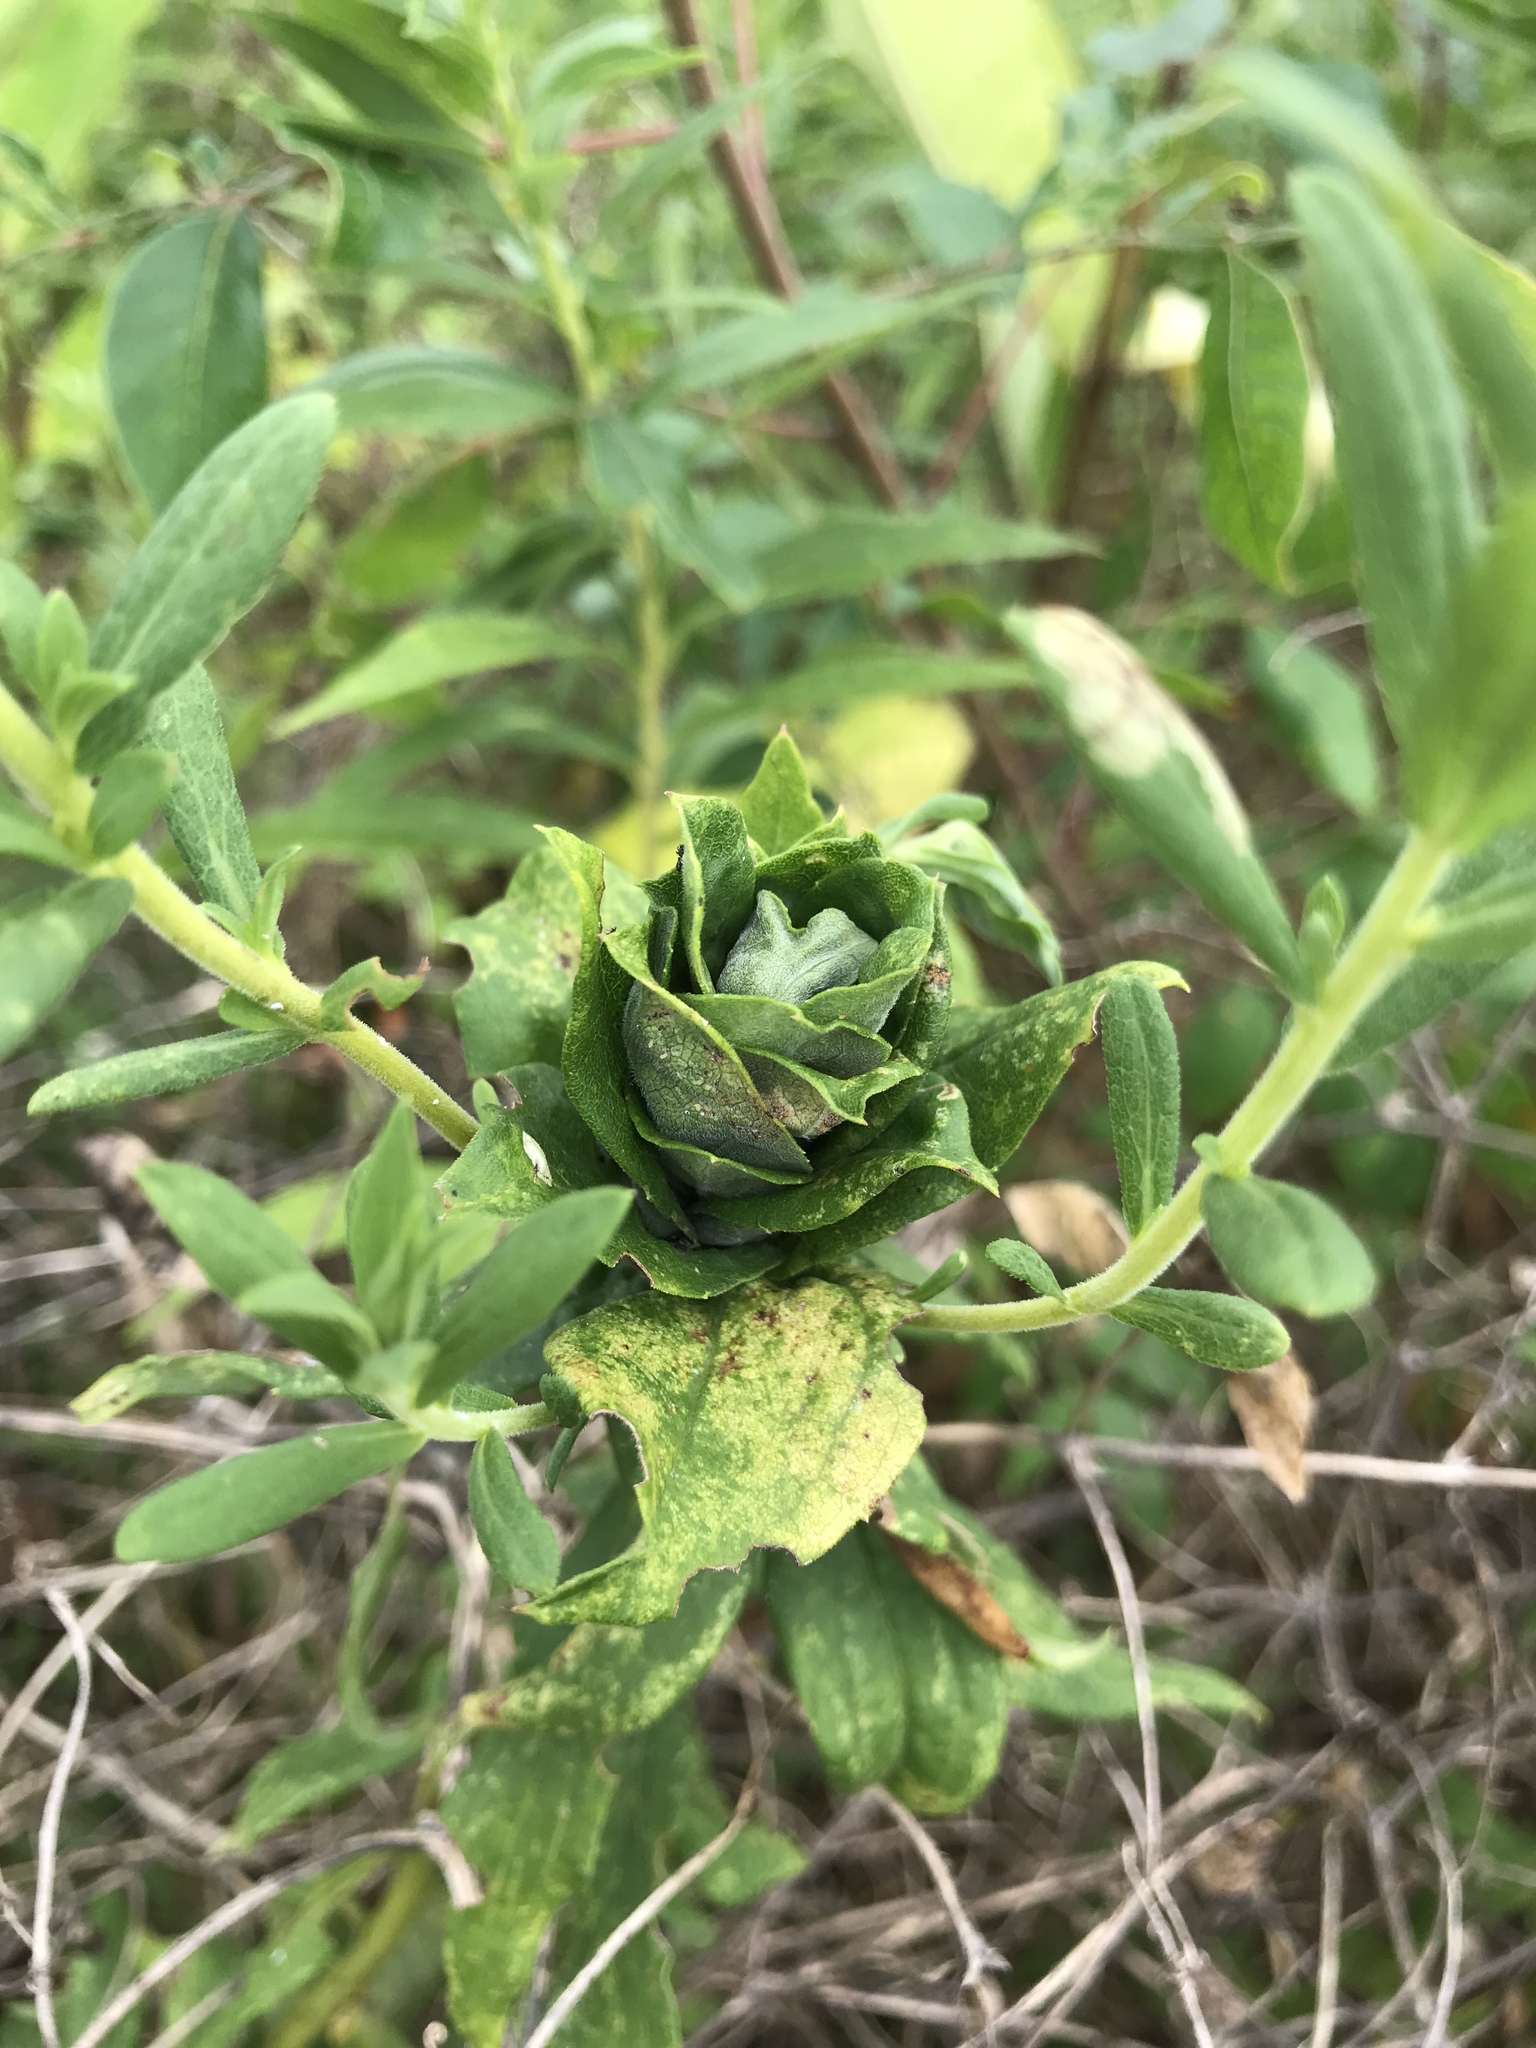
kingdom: Animalia
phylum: Arthropoda
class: Insecta
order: Diptera
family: Cecidomyiidae
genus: Rhopalomyia
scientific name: Rhopalomyia solidaginis
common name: Goldenrod bunch gall midge
